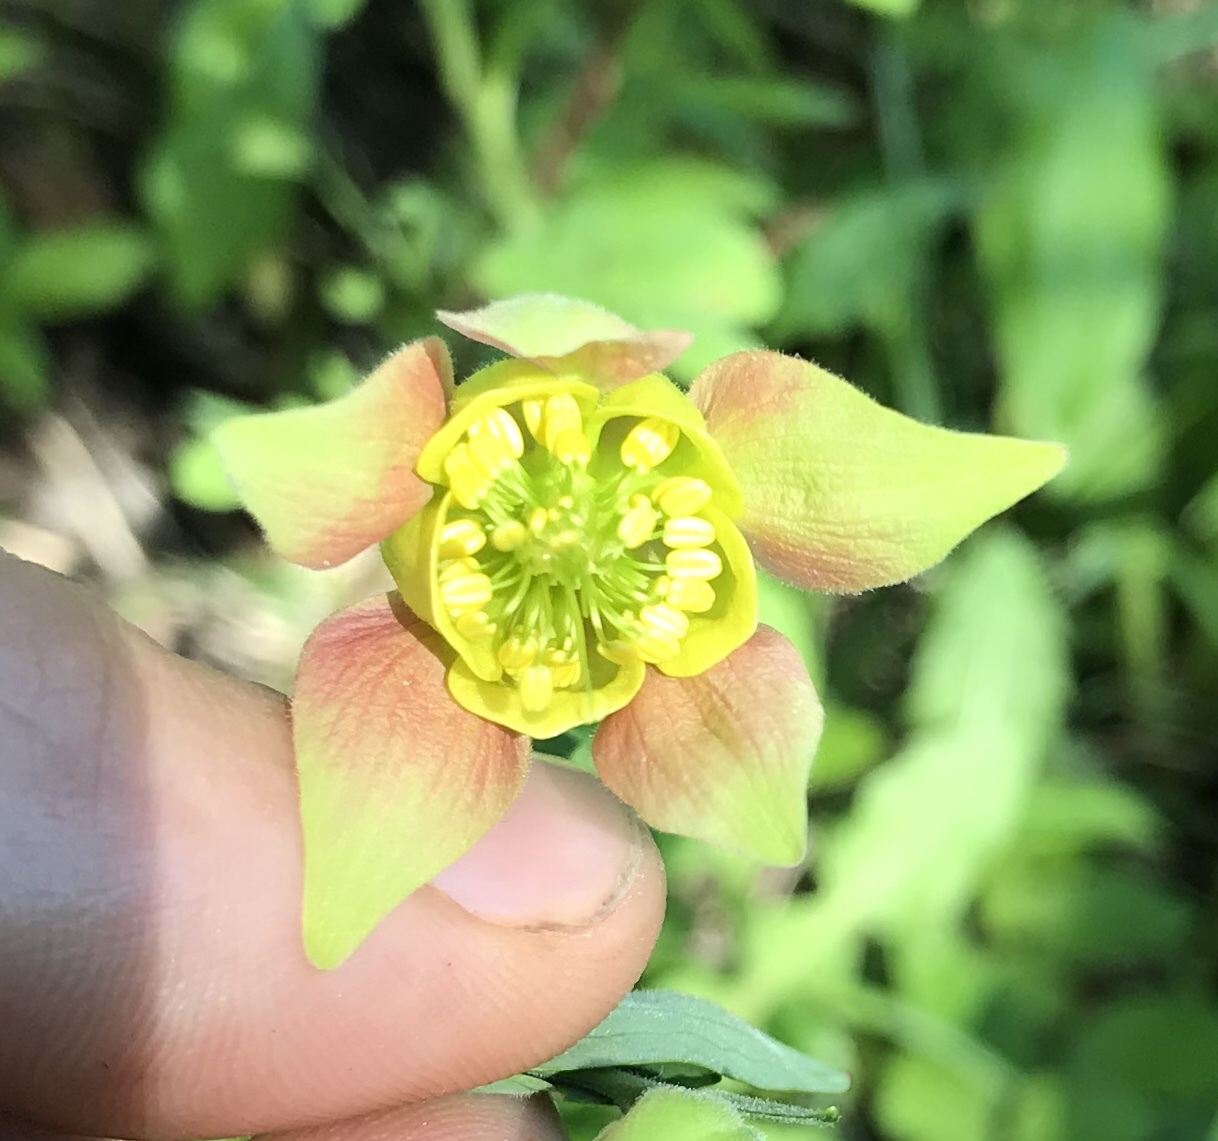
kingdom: Plantae
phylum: Tracheophyta
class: Magnoliopsida
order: Ranunculales
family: Ranunculaceae
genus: Aquilegia
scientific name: Aquilegia flavescens
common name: Yellow columbine
